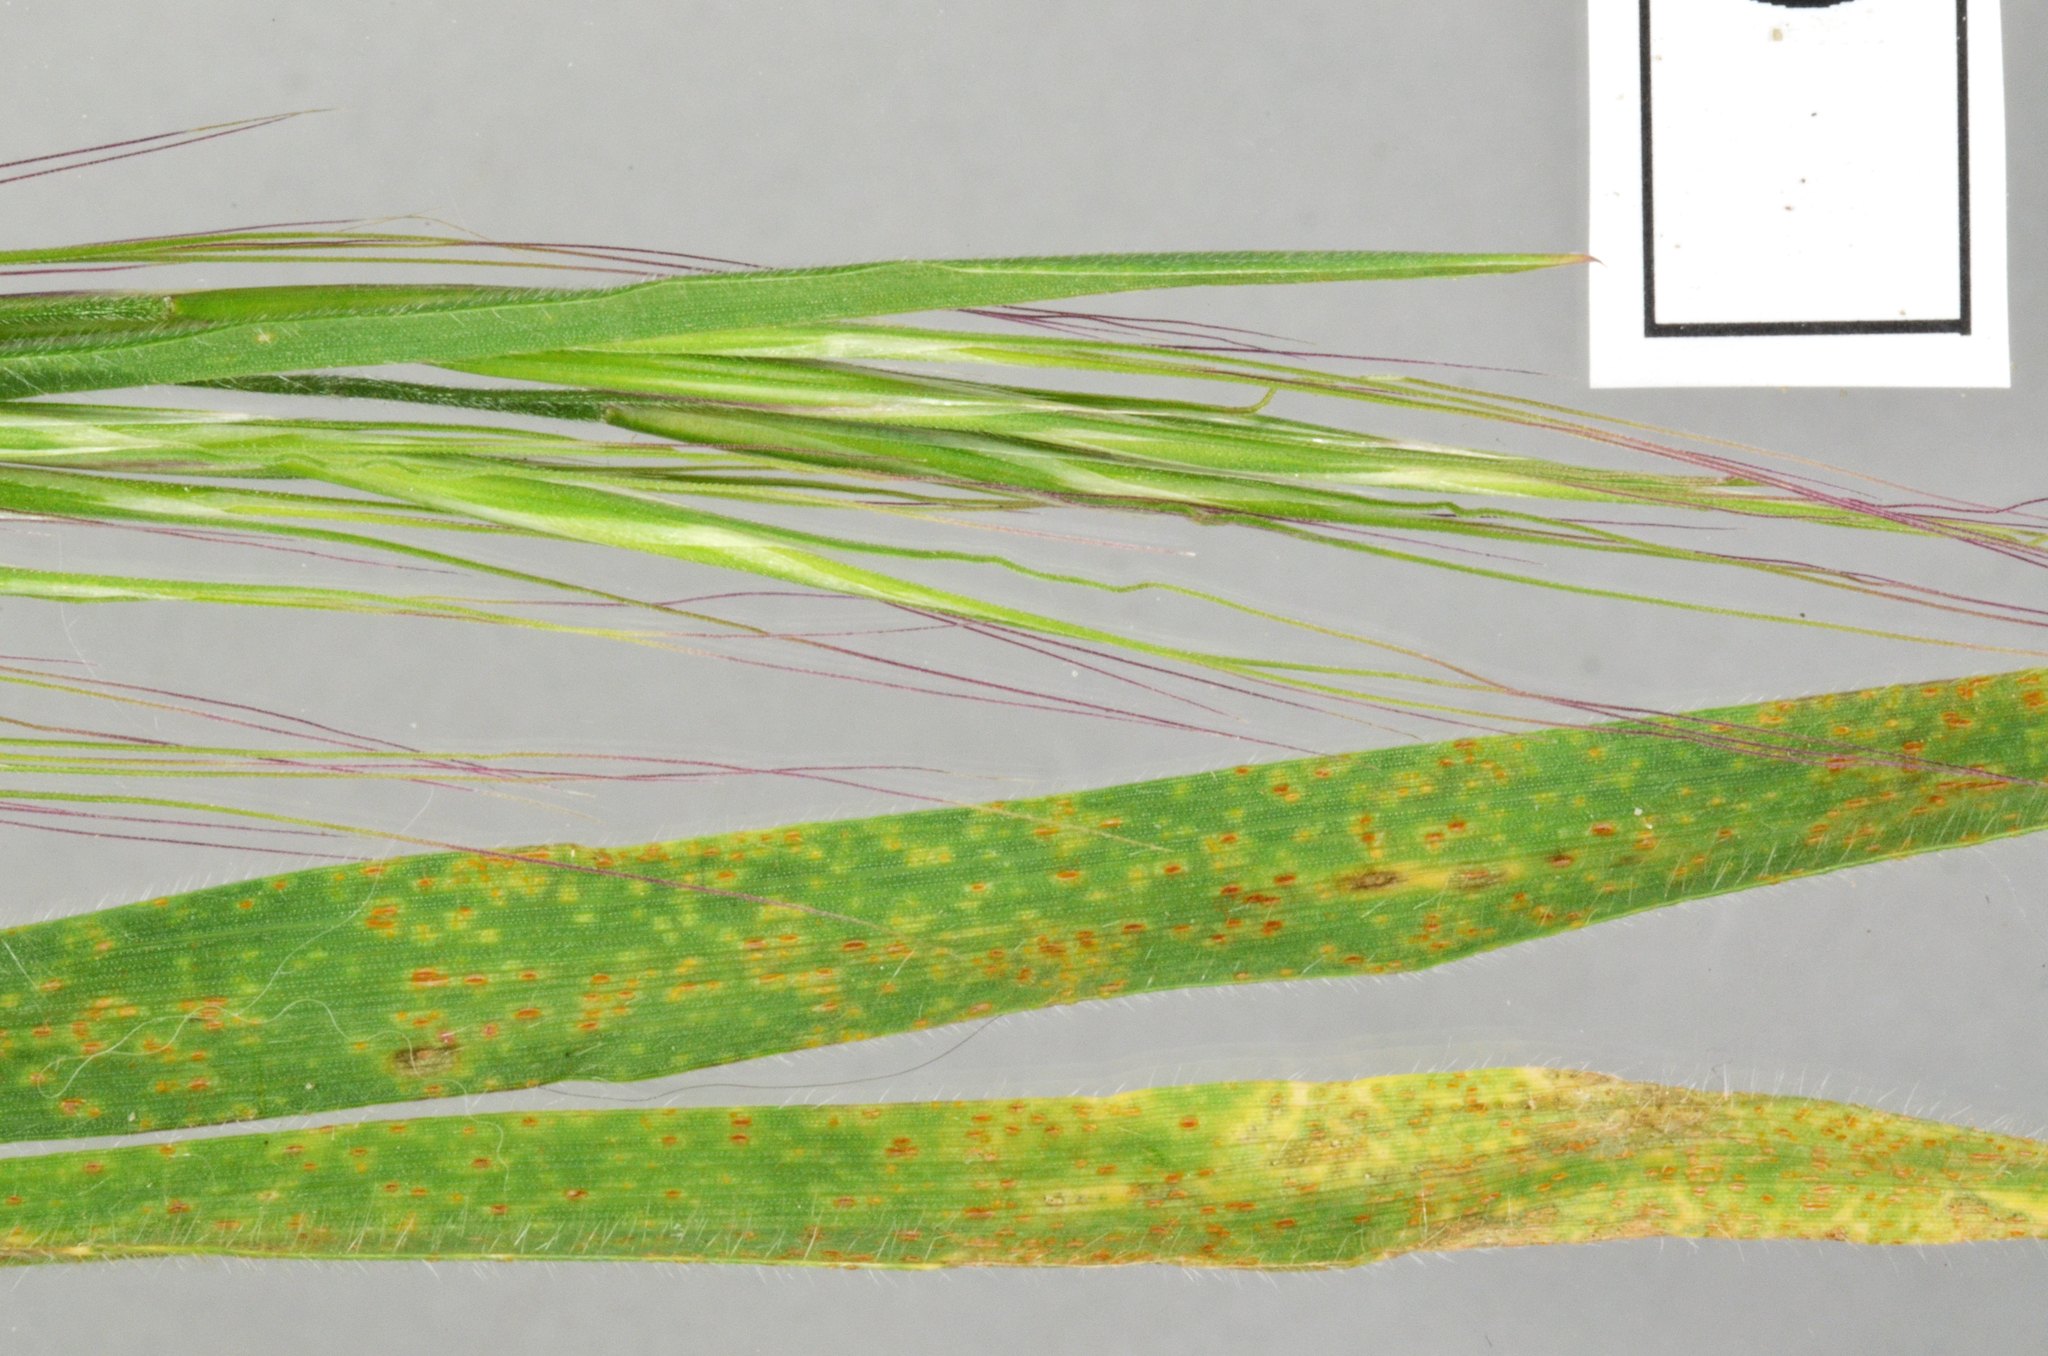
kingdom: Fungi
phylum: Basidiomycota
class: Pucciniomycetes
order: Pucciniales
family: Pucciniaceae
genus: Puccinia
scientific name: Puccinia recondita
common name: Brown rust of wheat
